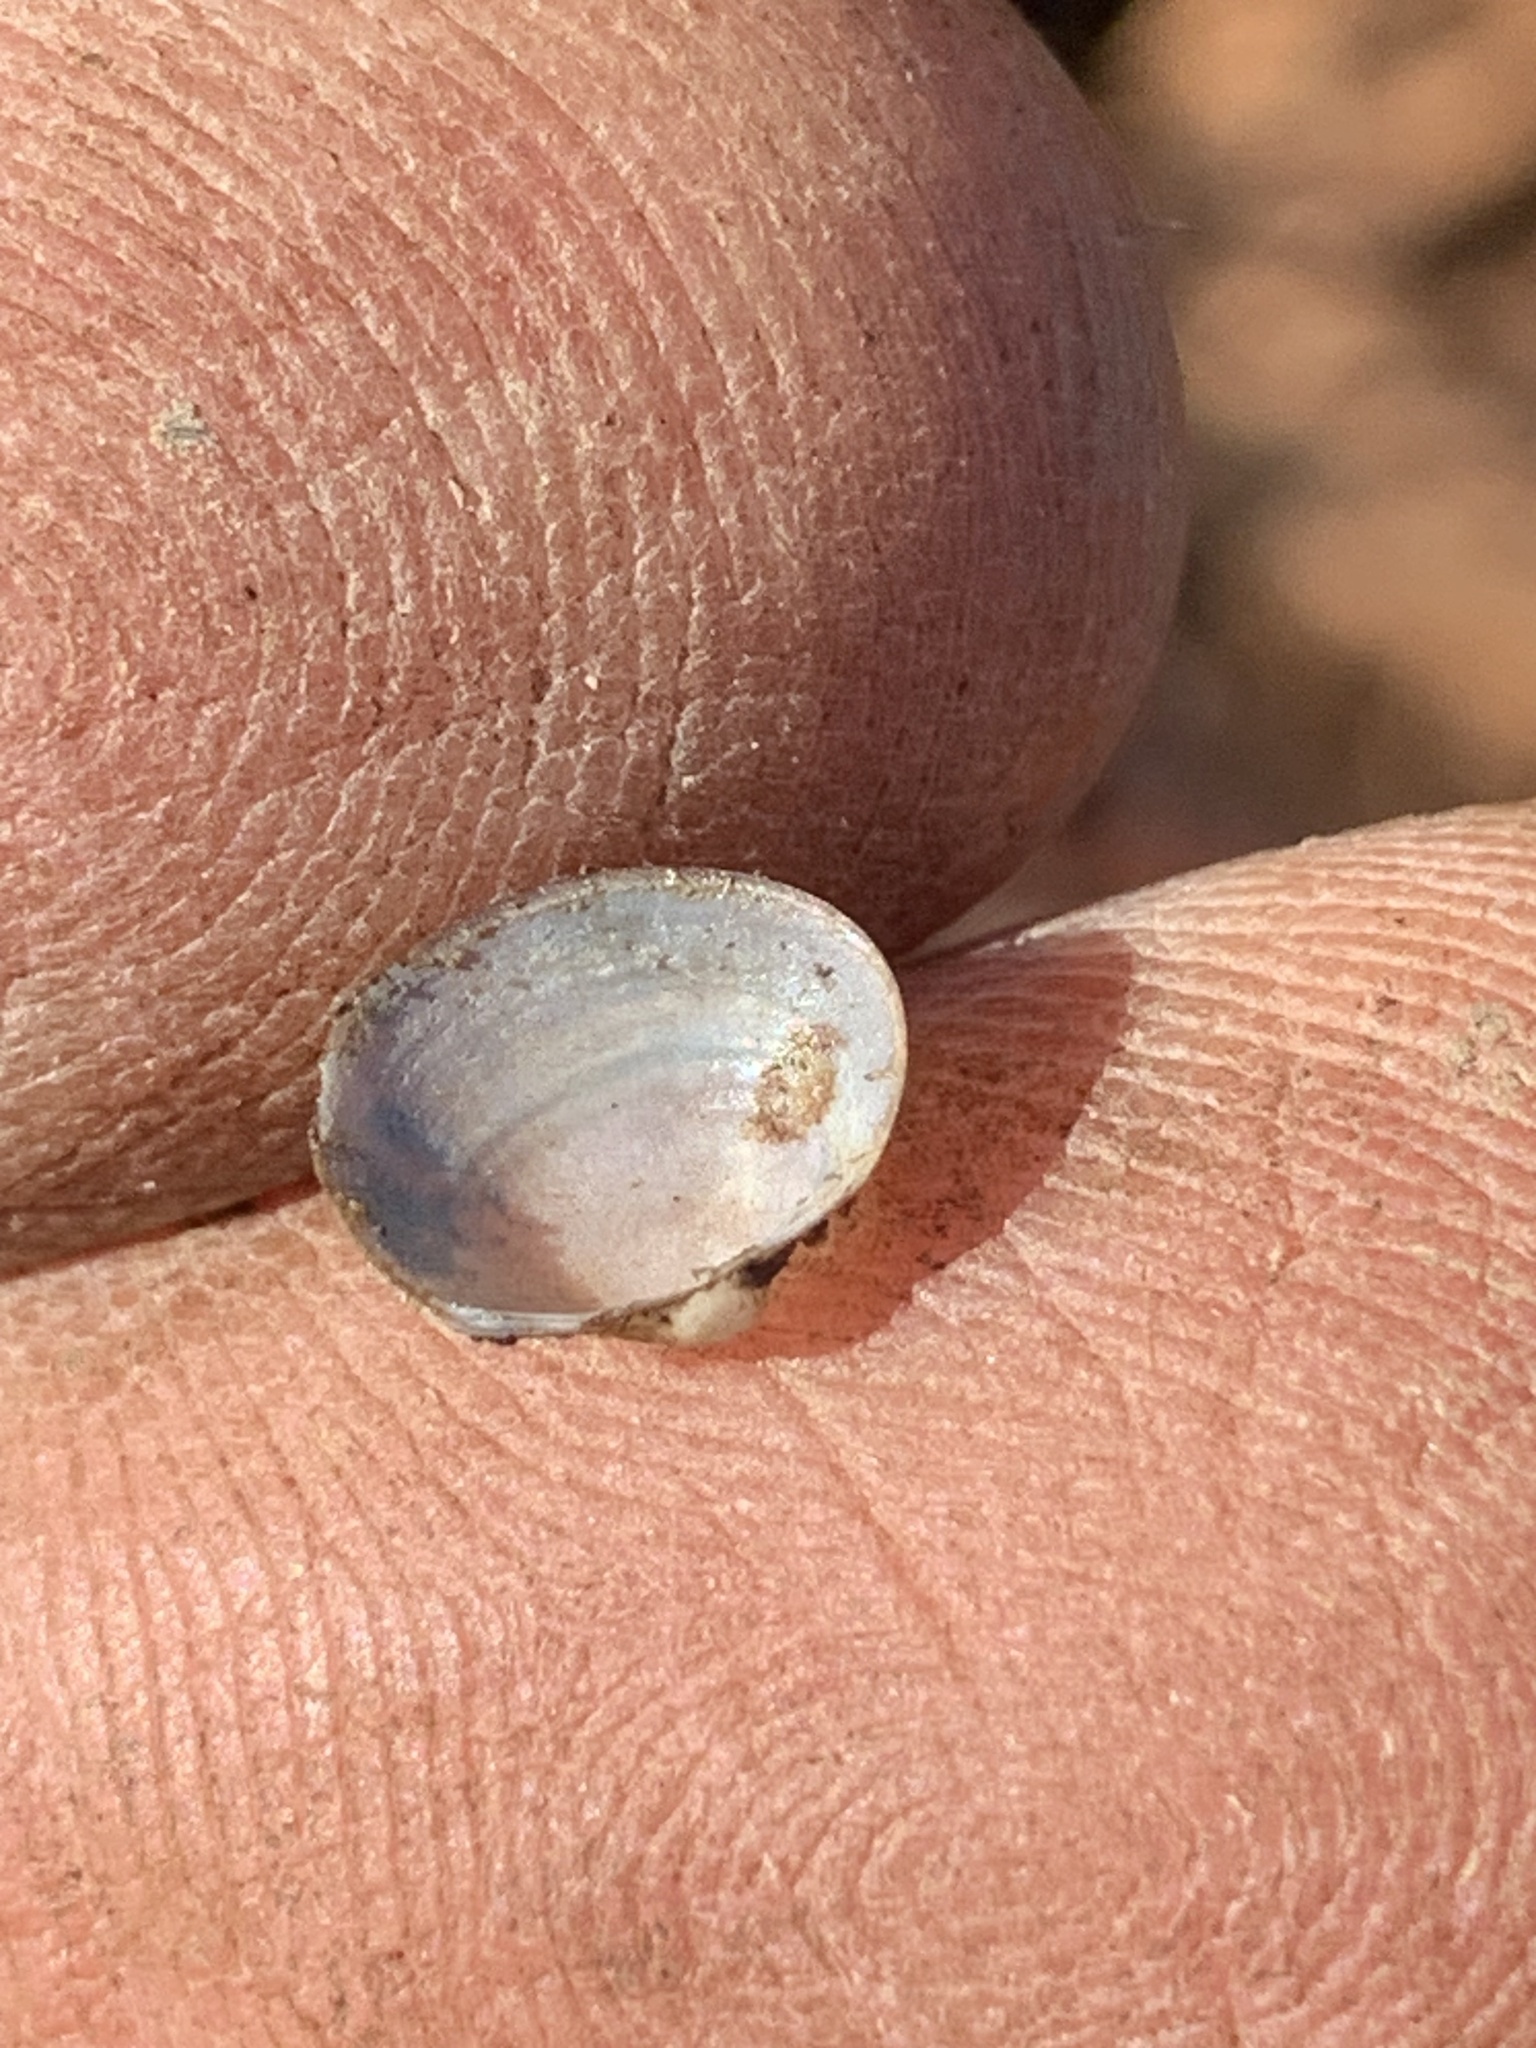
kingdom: Animalia
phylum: Mollusca
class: Bivalvia
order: Sphaeriida
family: Sphaeriidae
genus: Musculium
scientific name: Musculium lacustre
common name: Lake fingernailclam
